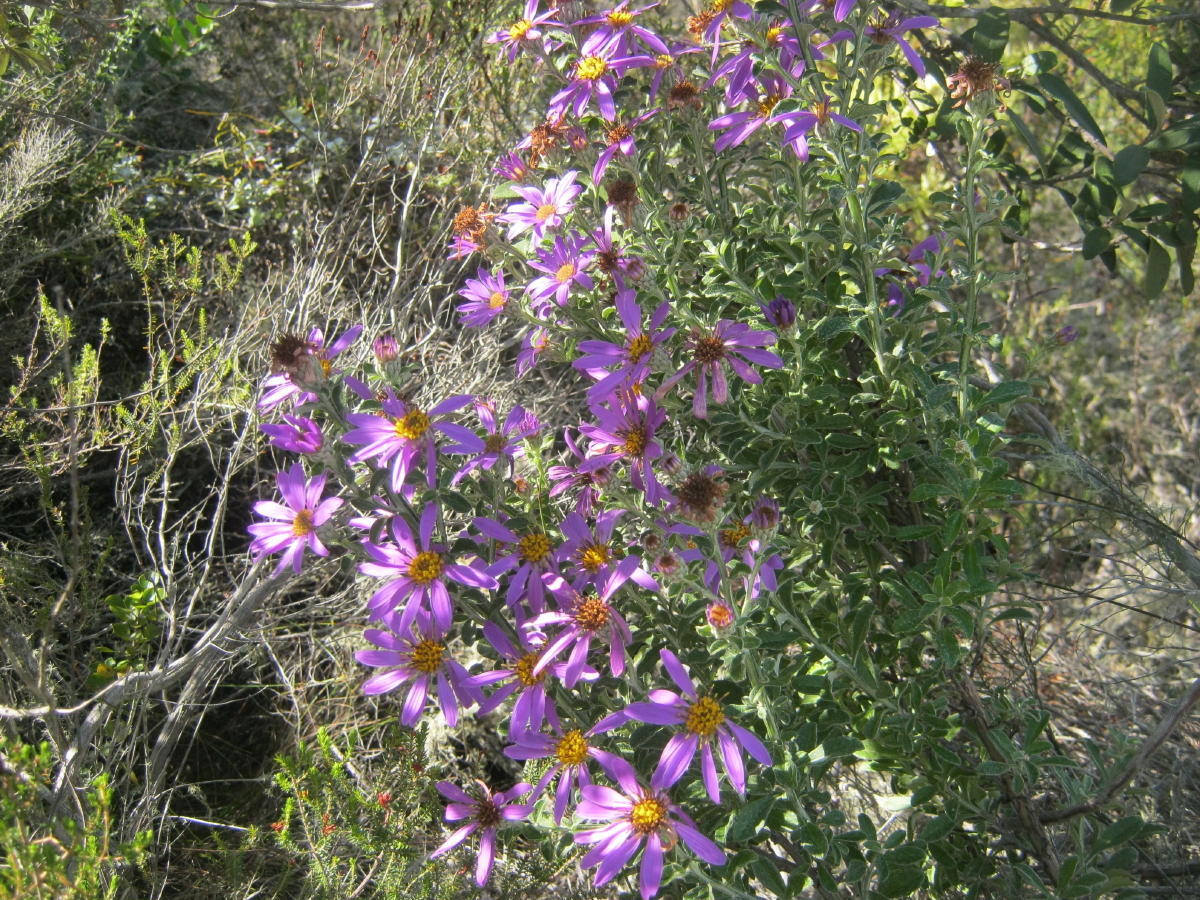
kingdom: Plantae
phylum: Tracheophyta
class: Magnoliopsida
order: Asterales
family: Asteraceae
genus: Printzia
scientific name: Printzia polifolia
